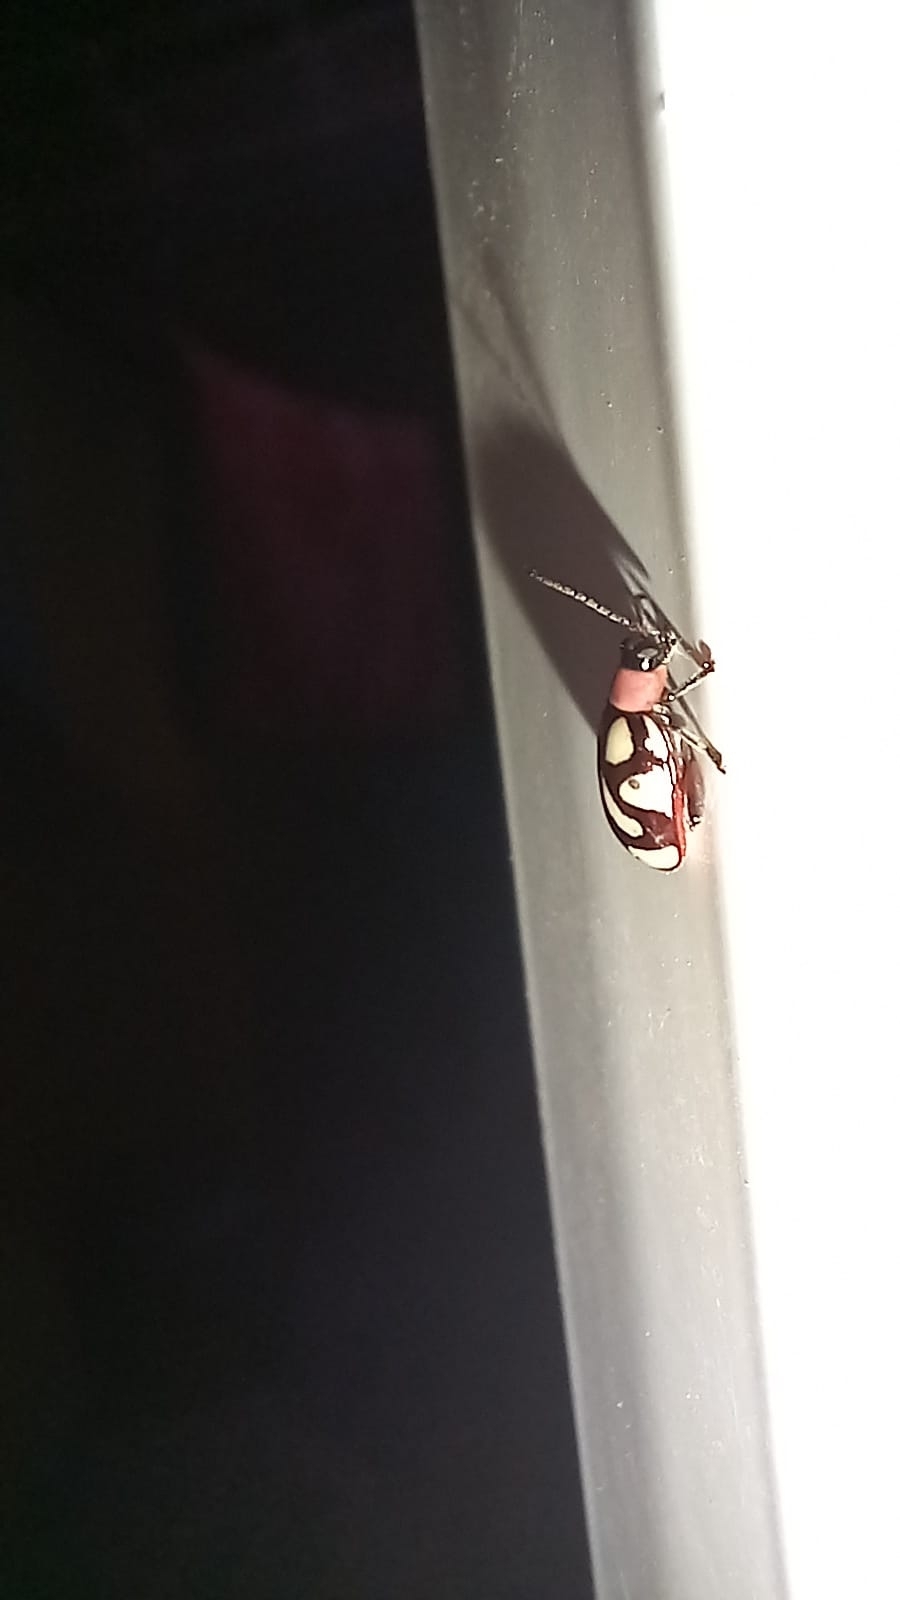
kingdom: Animalia
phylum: Arthropoda
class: Insecta
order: Coleoptera
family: Chrysomelidae
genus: Omophoita
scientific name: Omophoita albicollis
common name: Toensmeier's flea beetle
